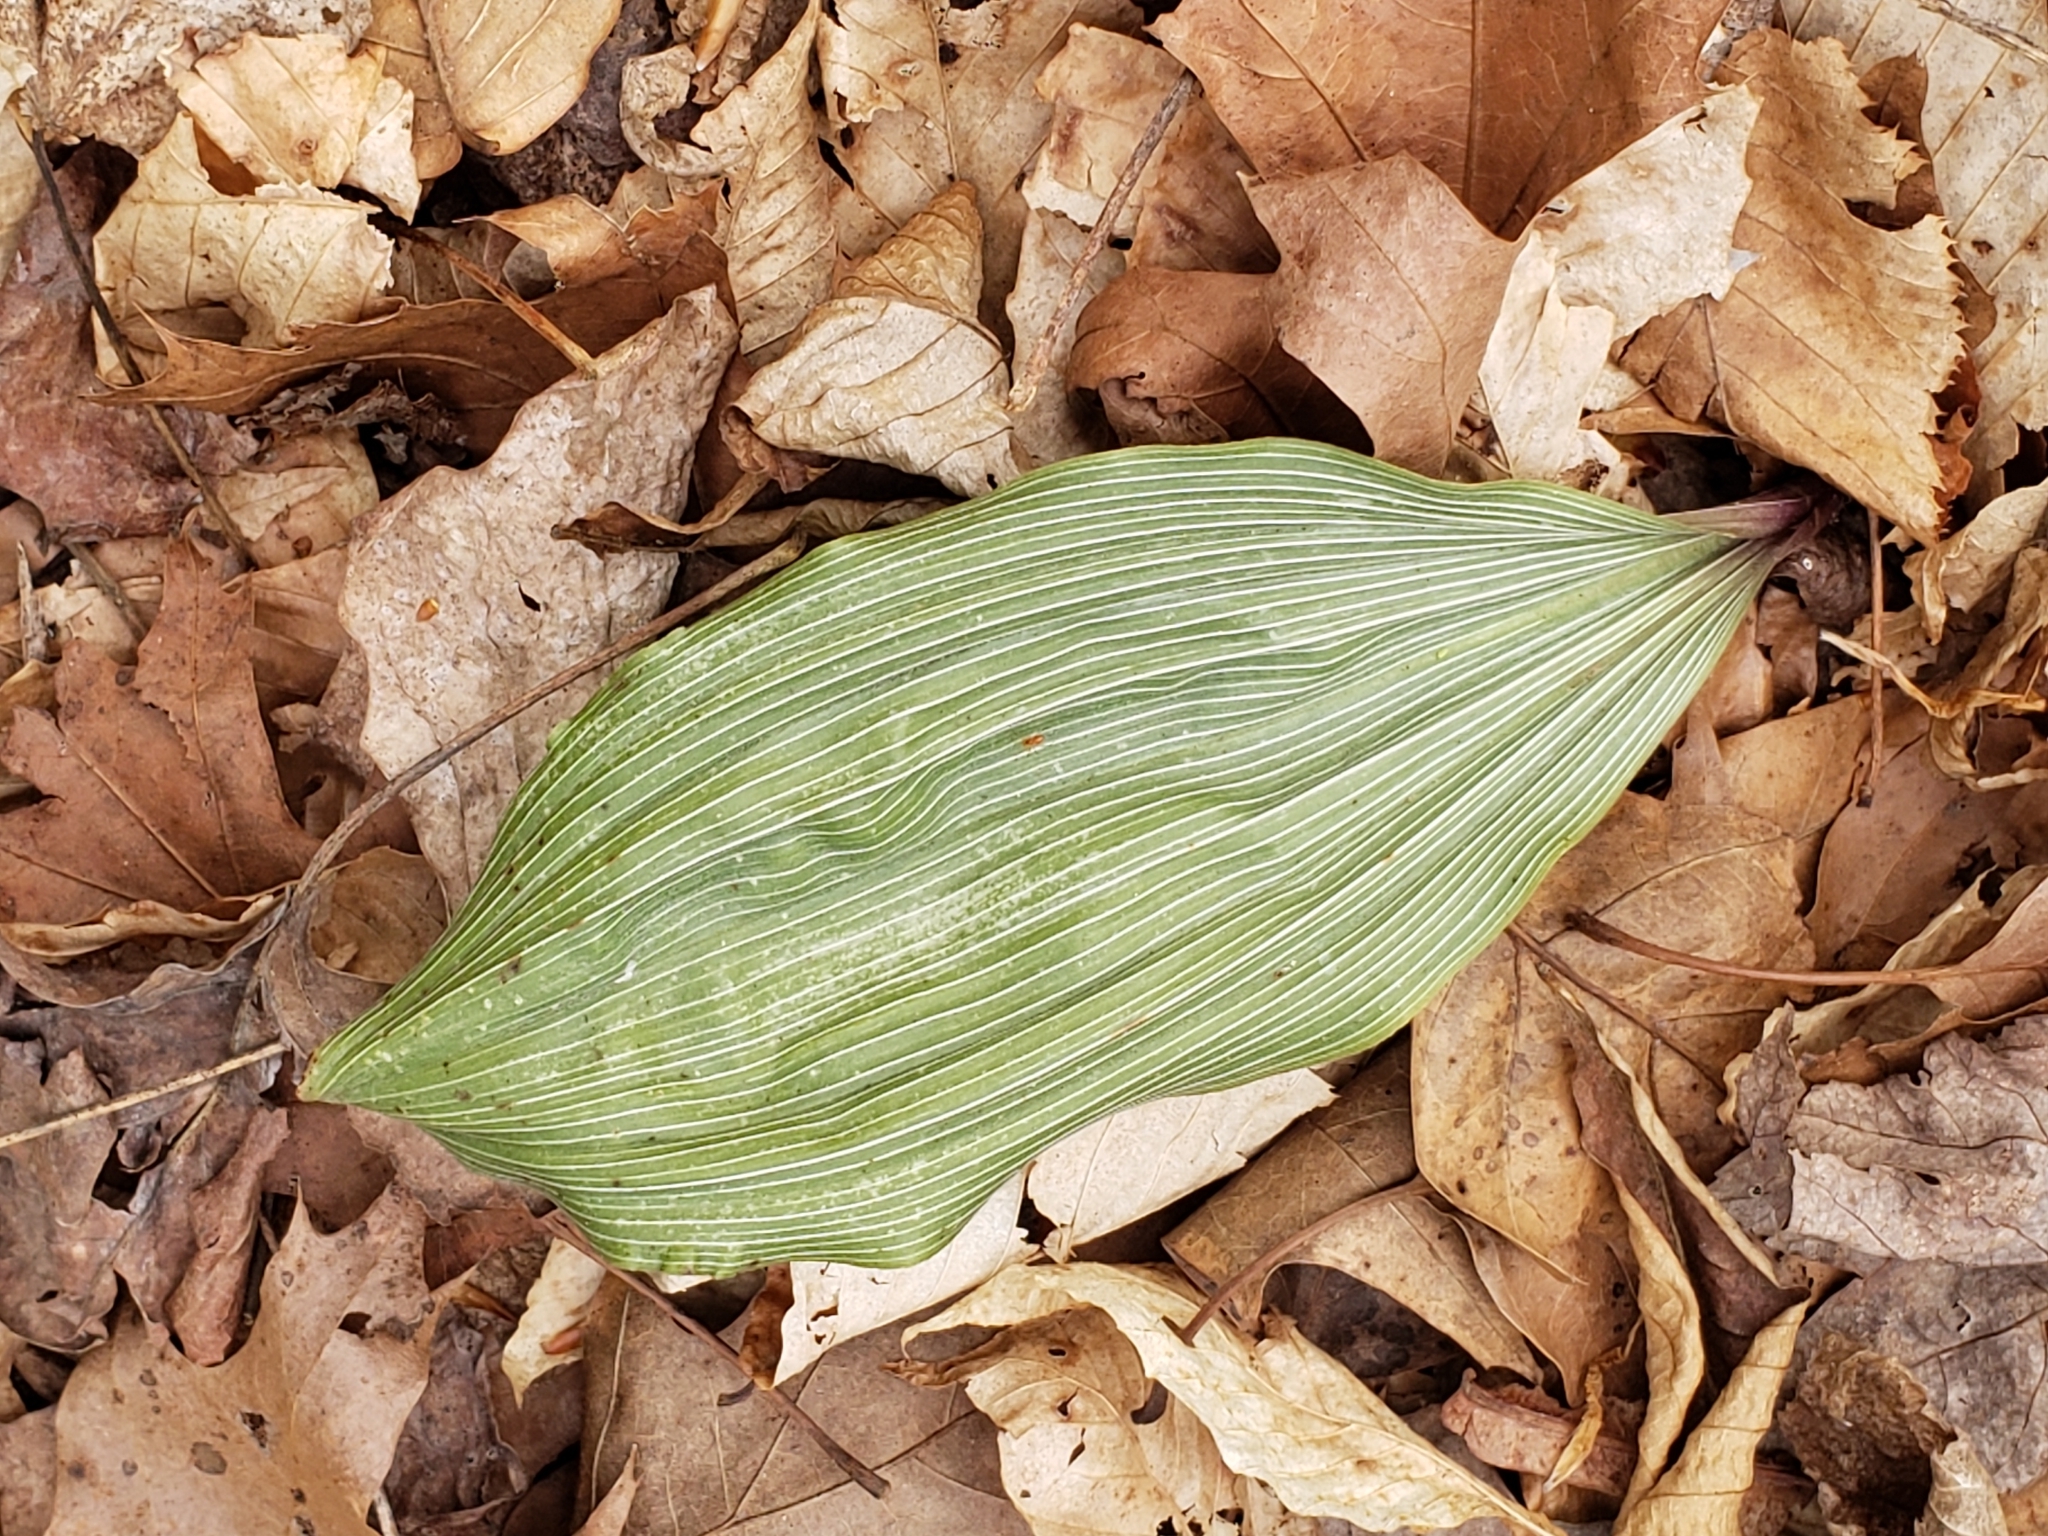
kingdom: Plantae
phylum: Tracheophyta
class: Liliopsida
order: Asparagales
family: Orchidaceae
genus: Aplectrum
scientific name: Aplectrum hyemale
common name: Adam-and-eve
